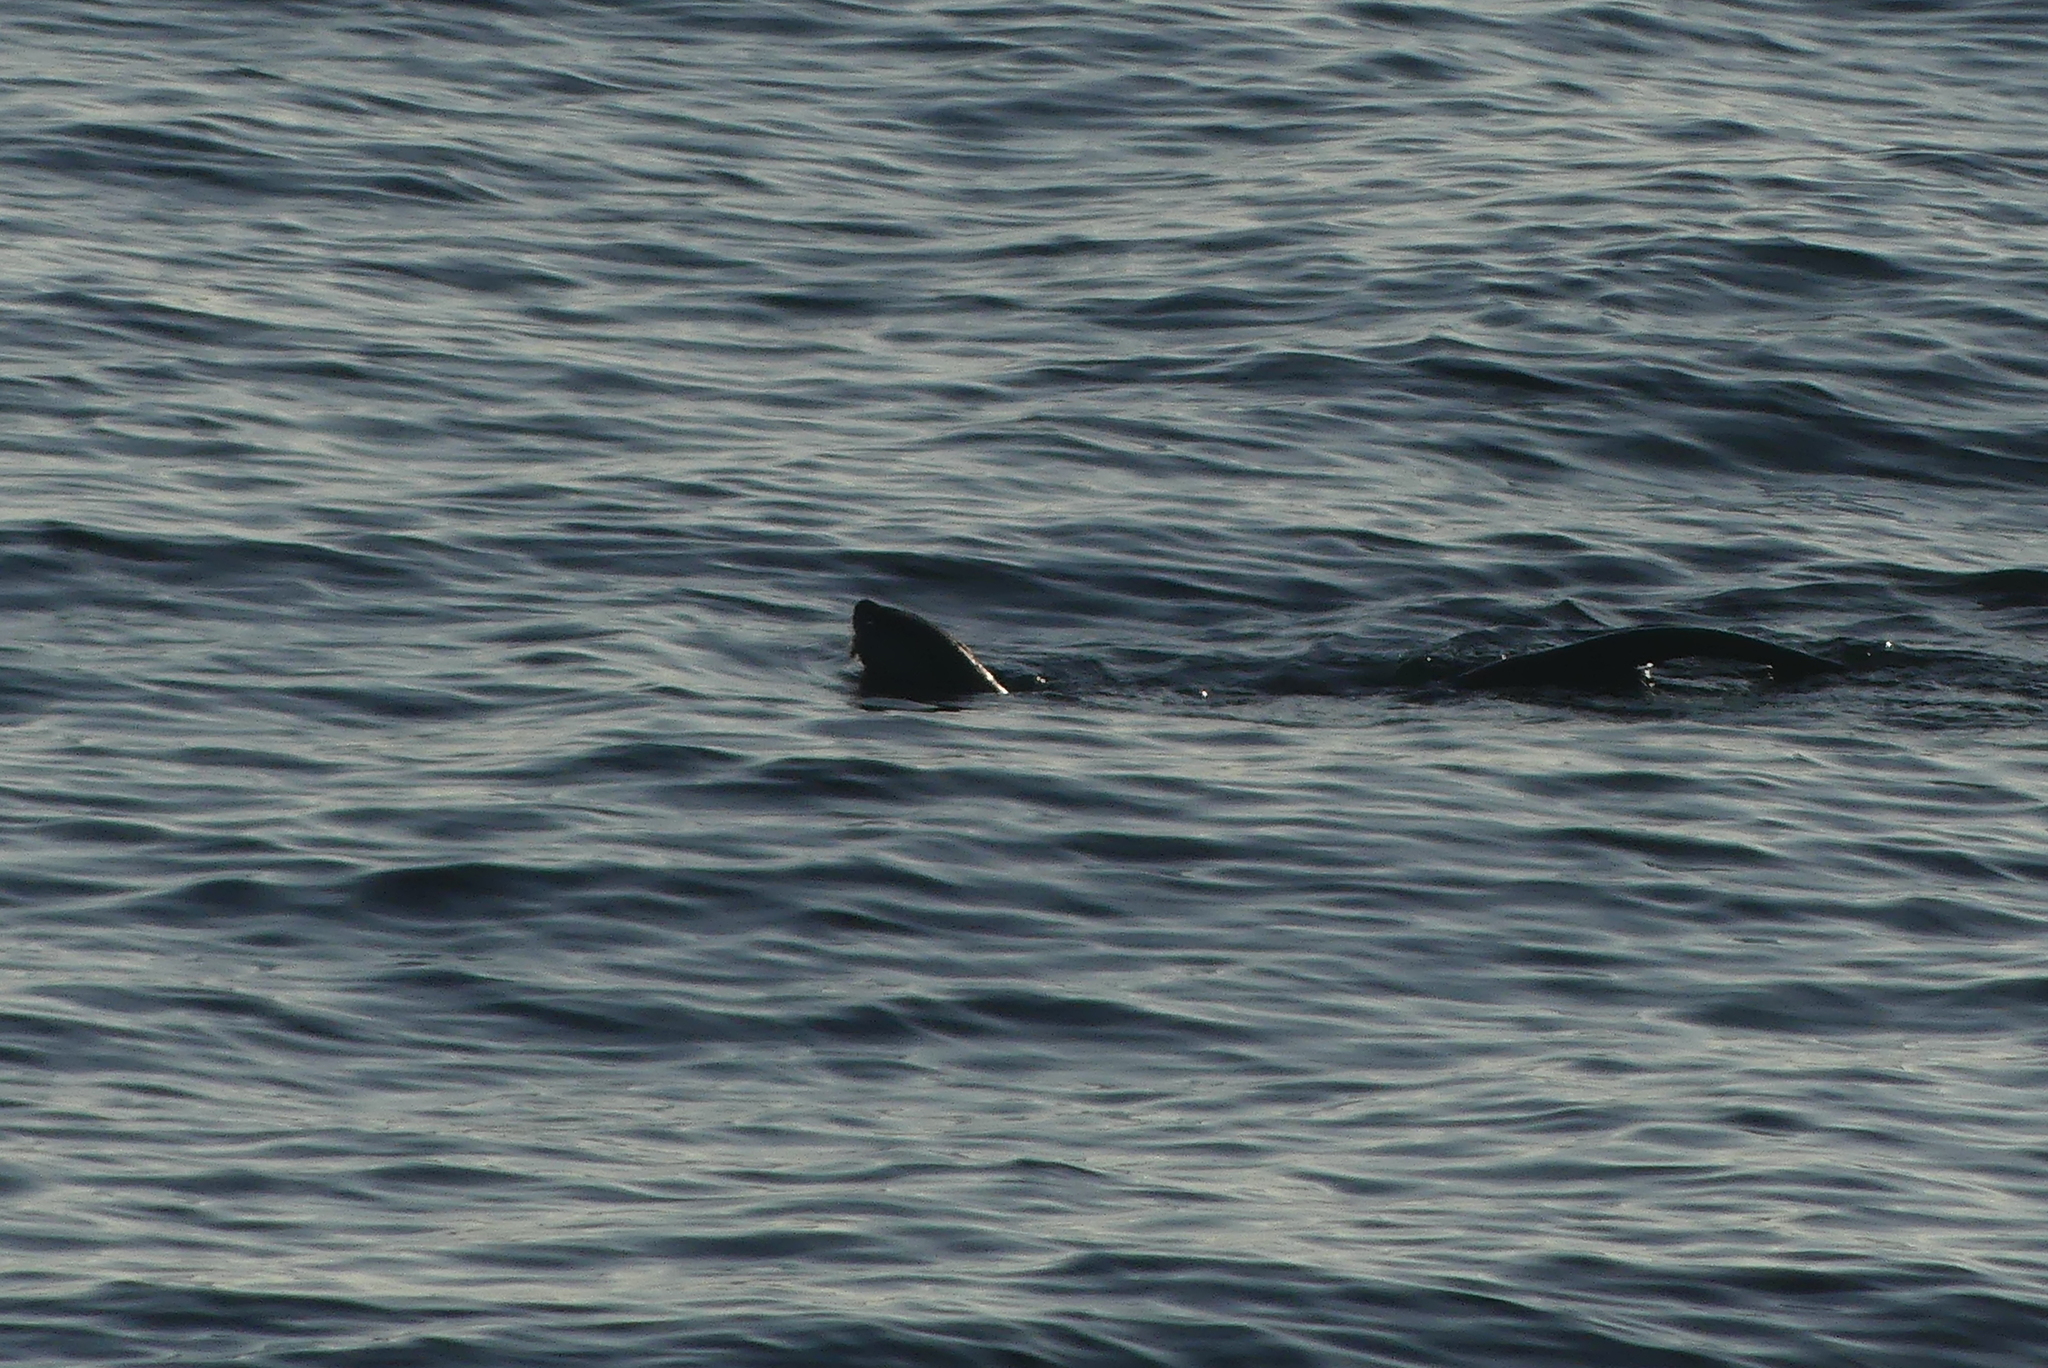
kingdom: Animalia
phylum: Chordata
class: Mammalia
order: Carnivora
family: Mustelidae
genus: Lontra
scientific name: Lontra canadensis
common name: North american river otter
